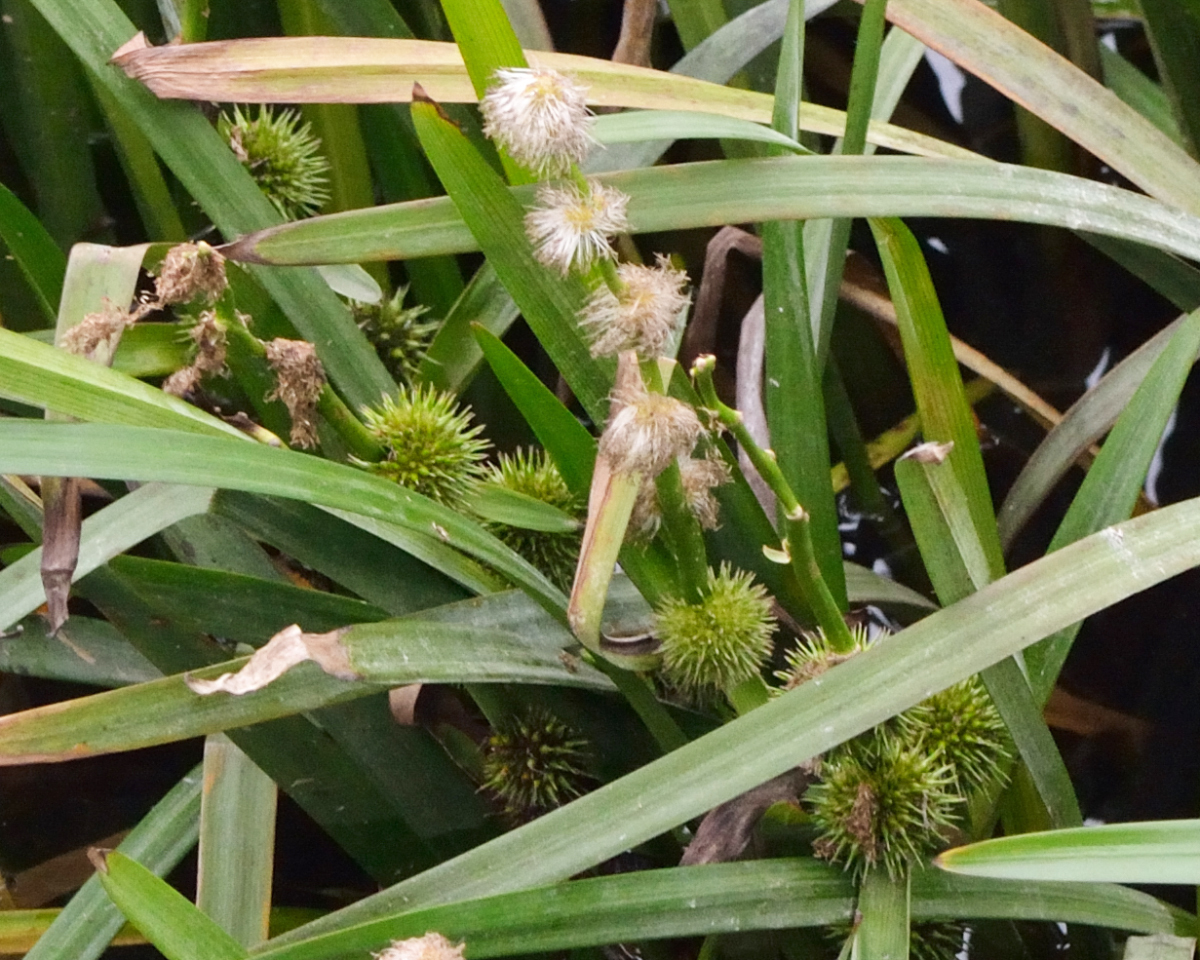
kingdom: Plantae
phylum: Tracheophyta
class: Liliopsida
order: Poales
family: Typhaceae
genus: Sparganium
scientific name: Sparganium emersum
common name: Unbranched bur-reed
